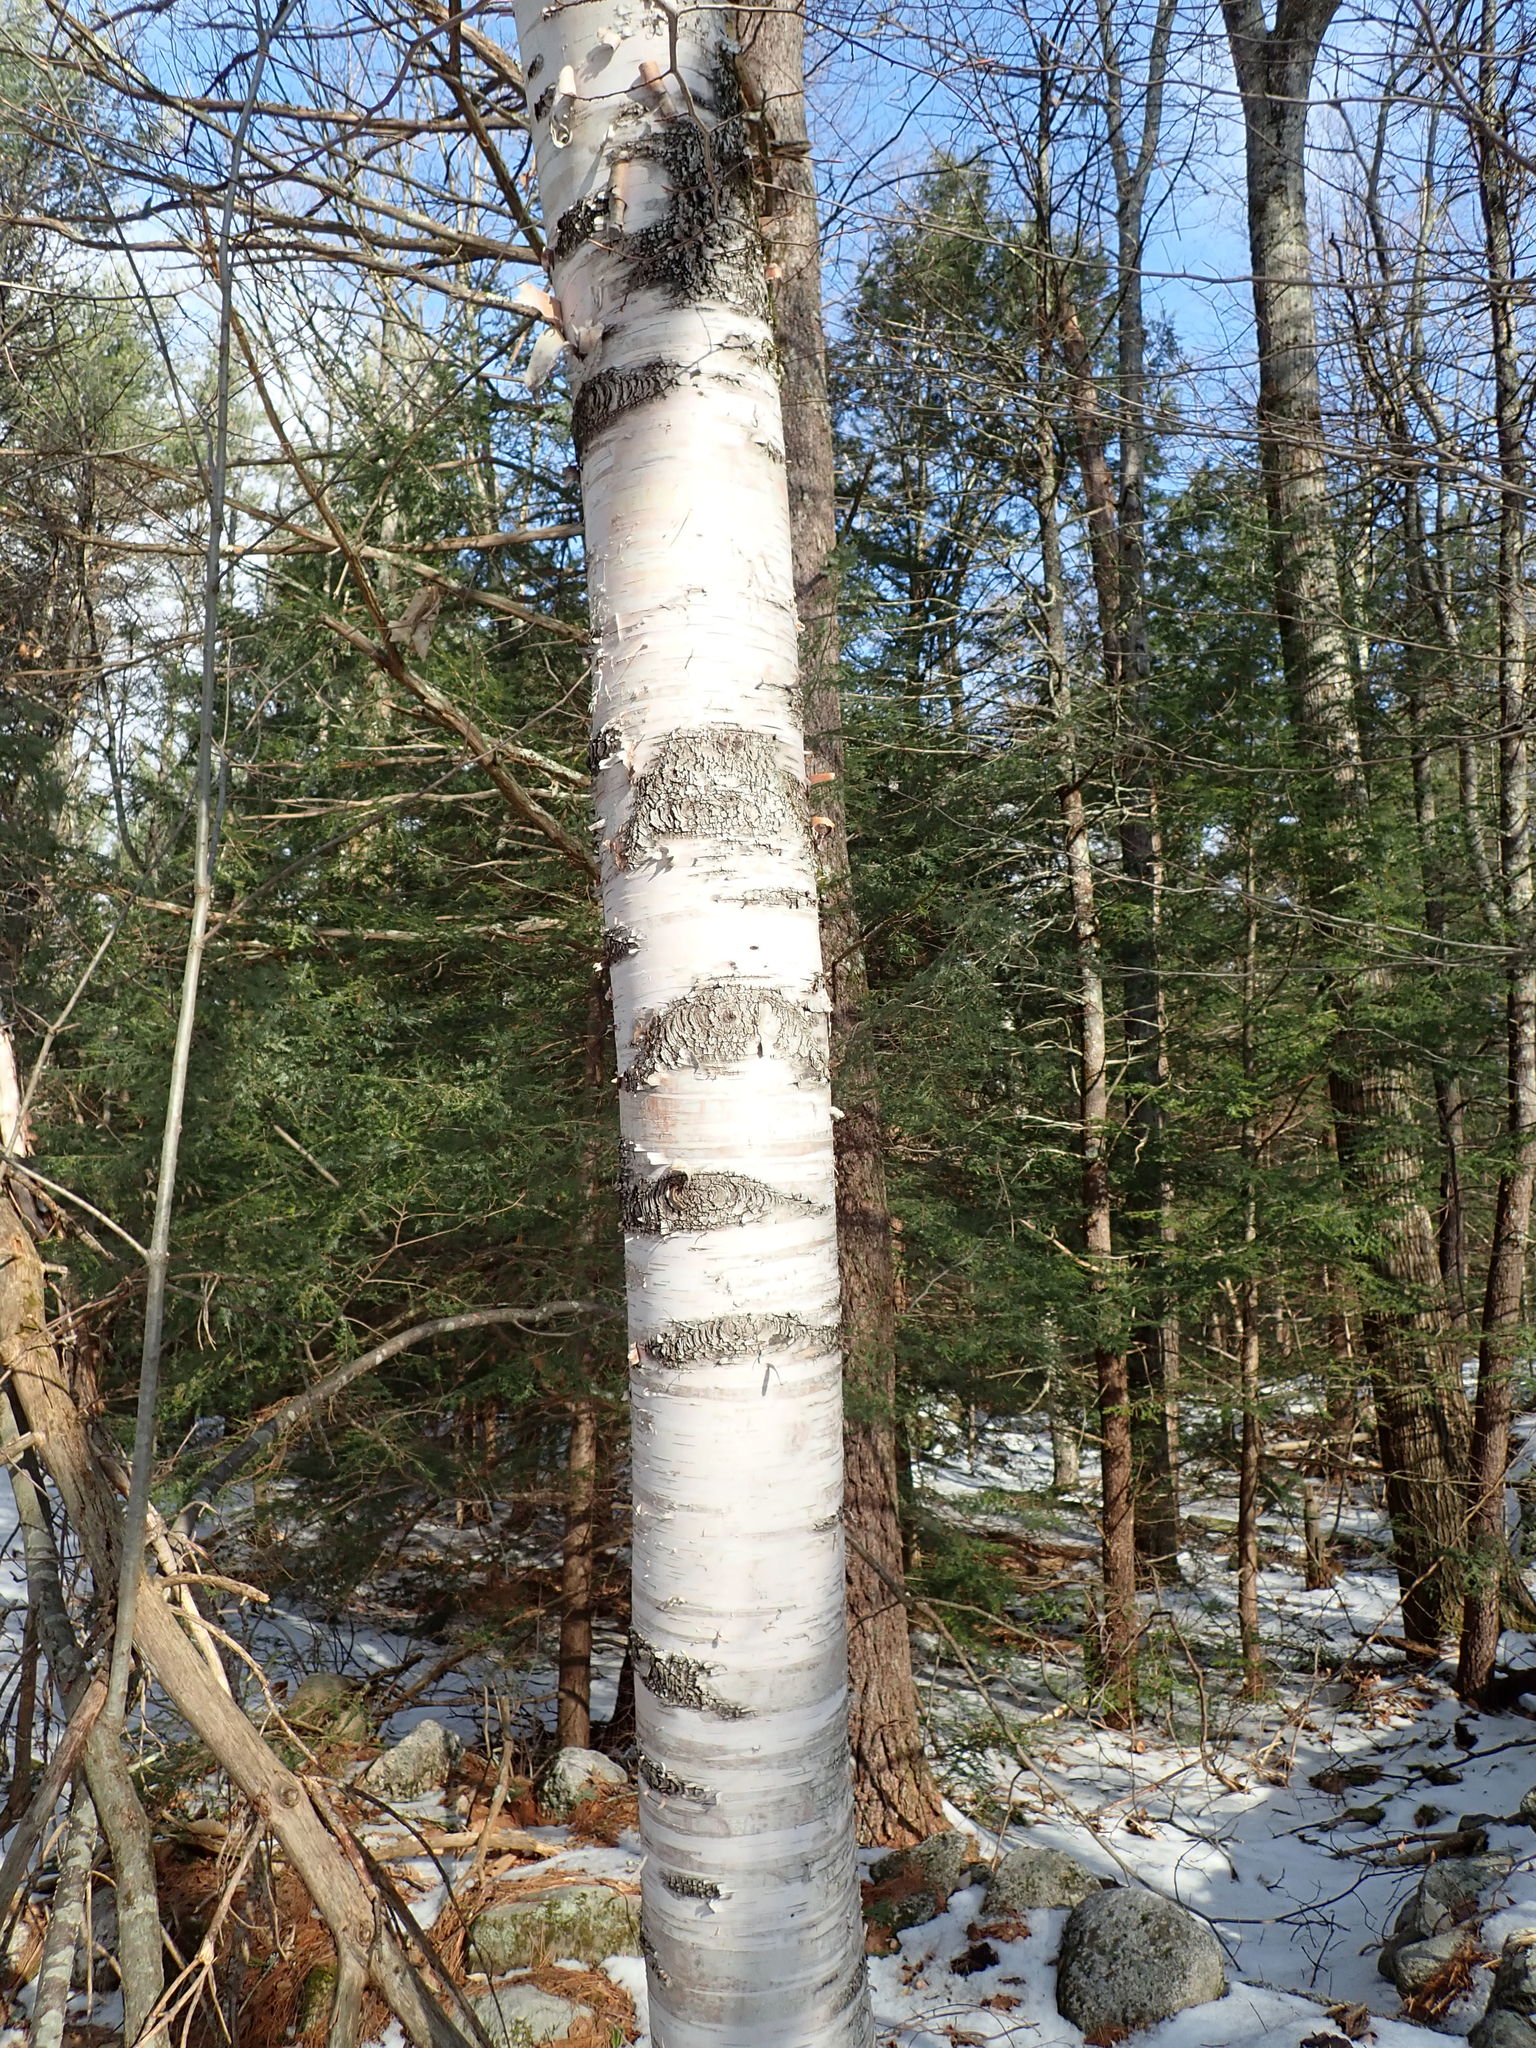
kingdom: Plantae
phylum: Tracheophyta
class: Magnoliopsida
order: Fagales
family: Betulaceae
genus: Betula
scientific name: Betula papyrifera
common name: Paper birch
